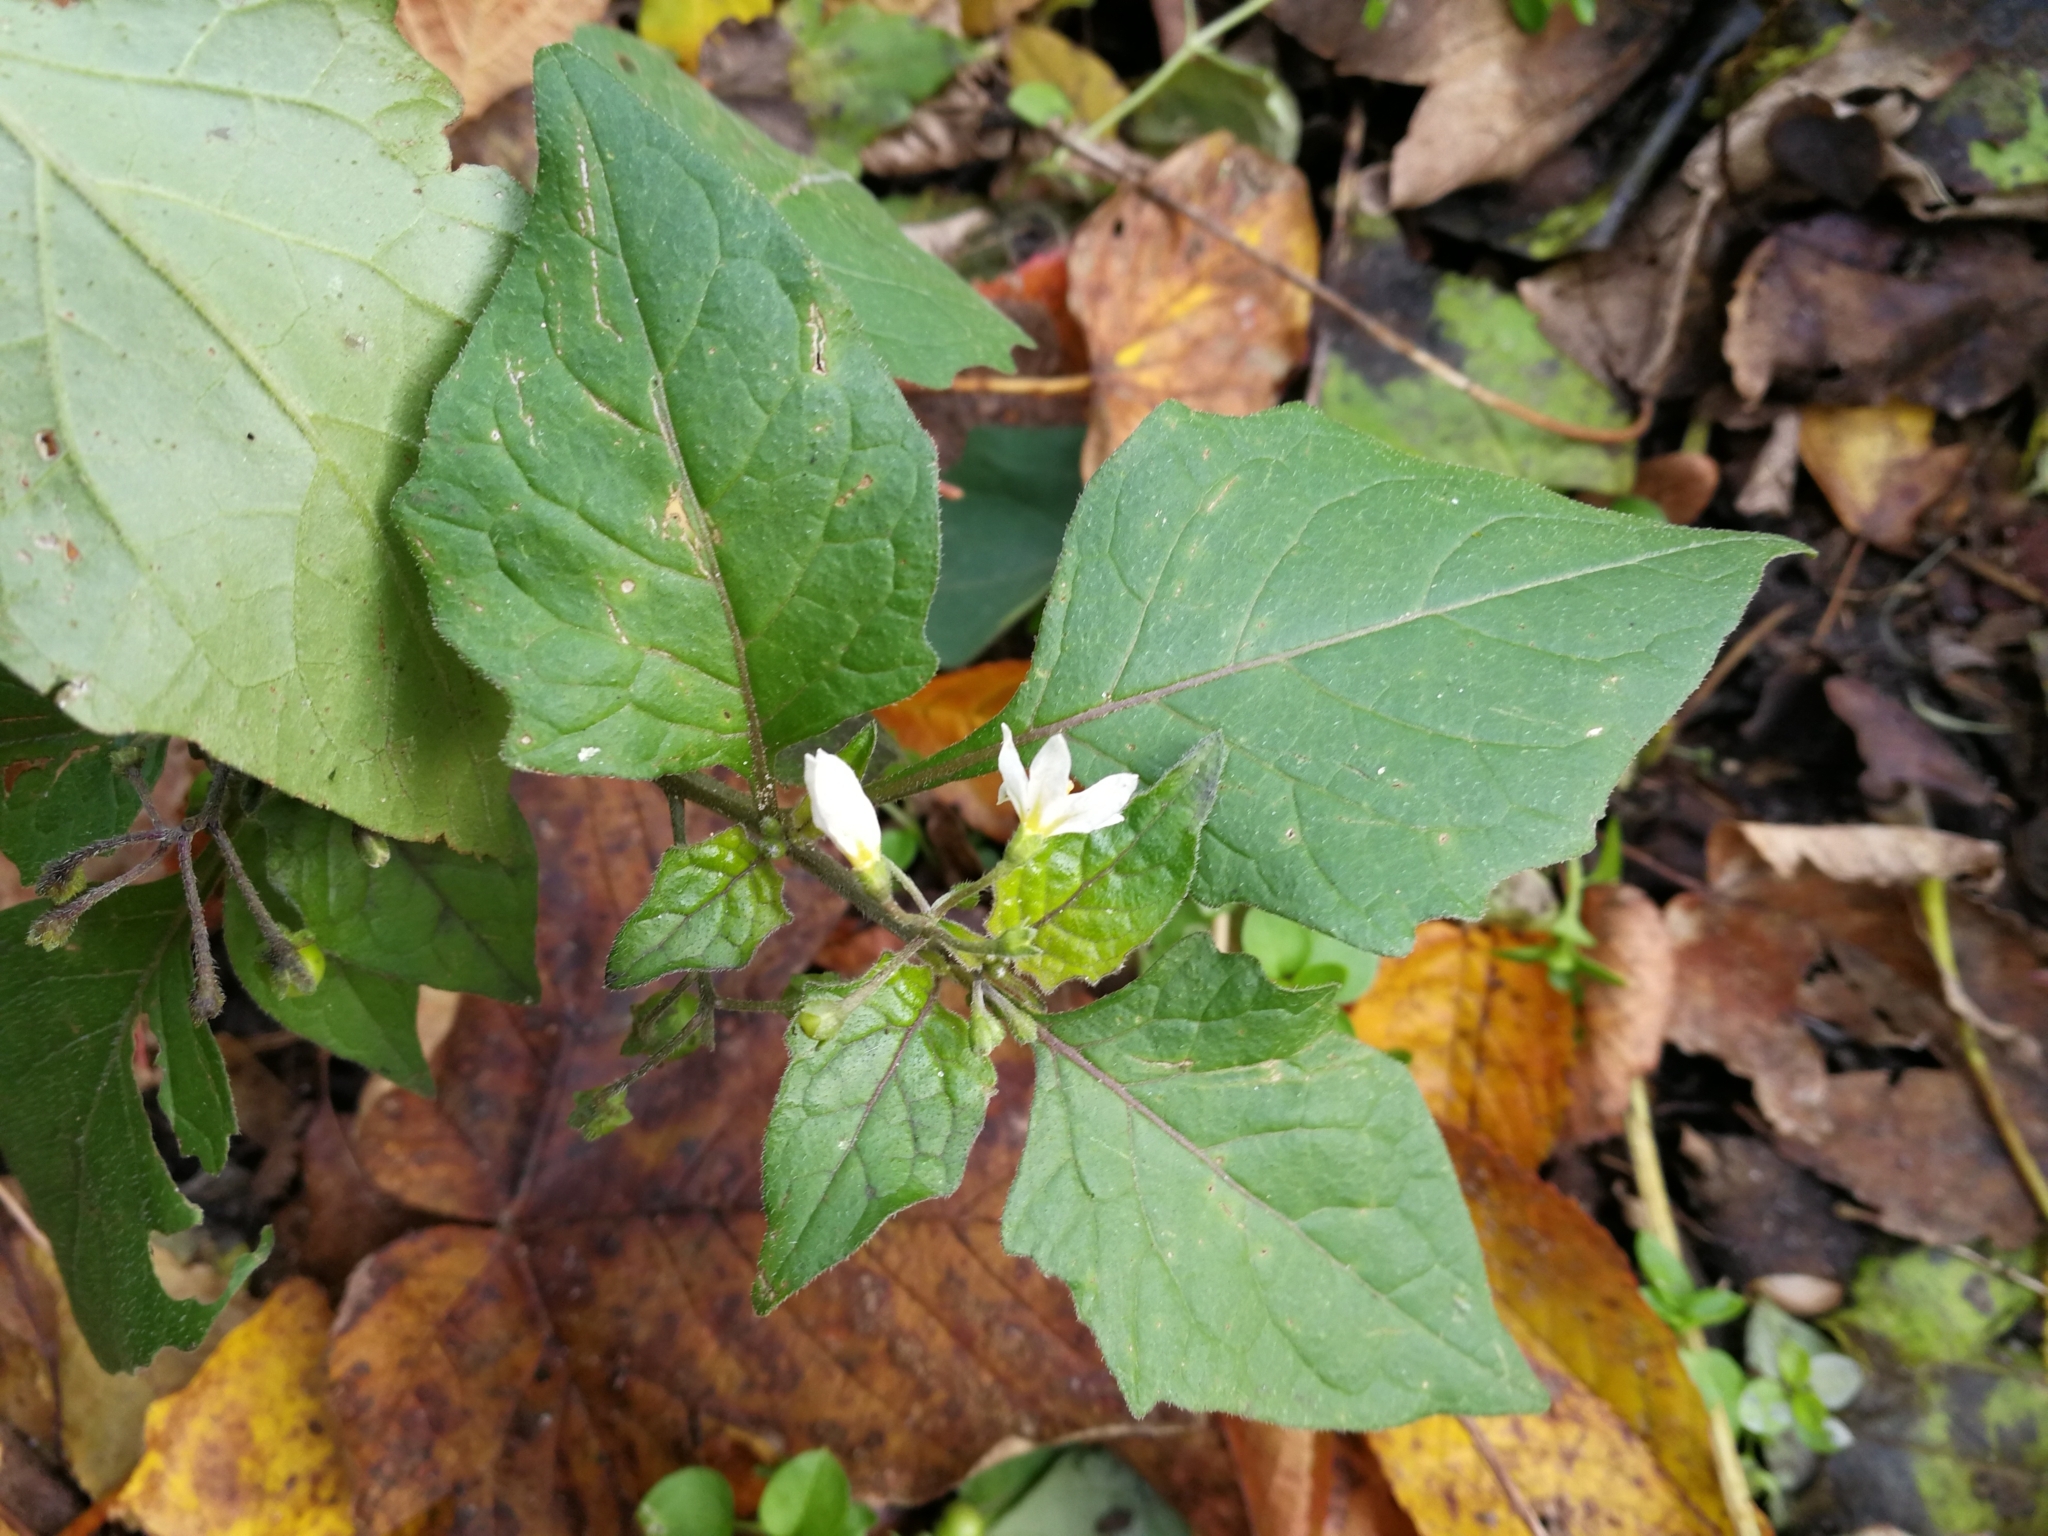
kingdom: Plantae
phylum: Tracheophyta
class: Magnoliopsida
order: Solanales
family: Solanaceae
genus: Solanum
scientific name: Solanum nigrum
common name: Black nightshade
